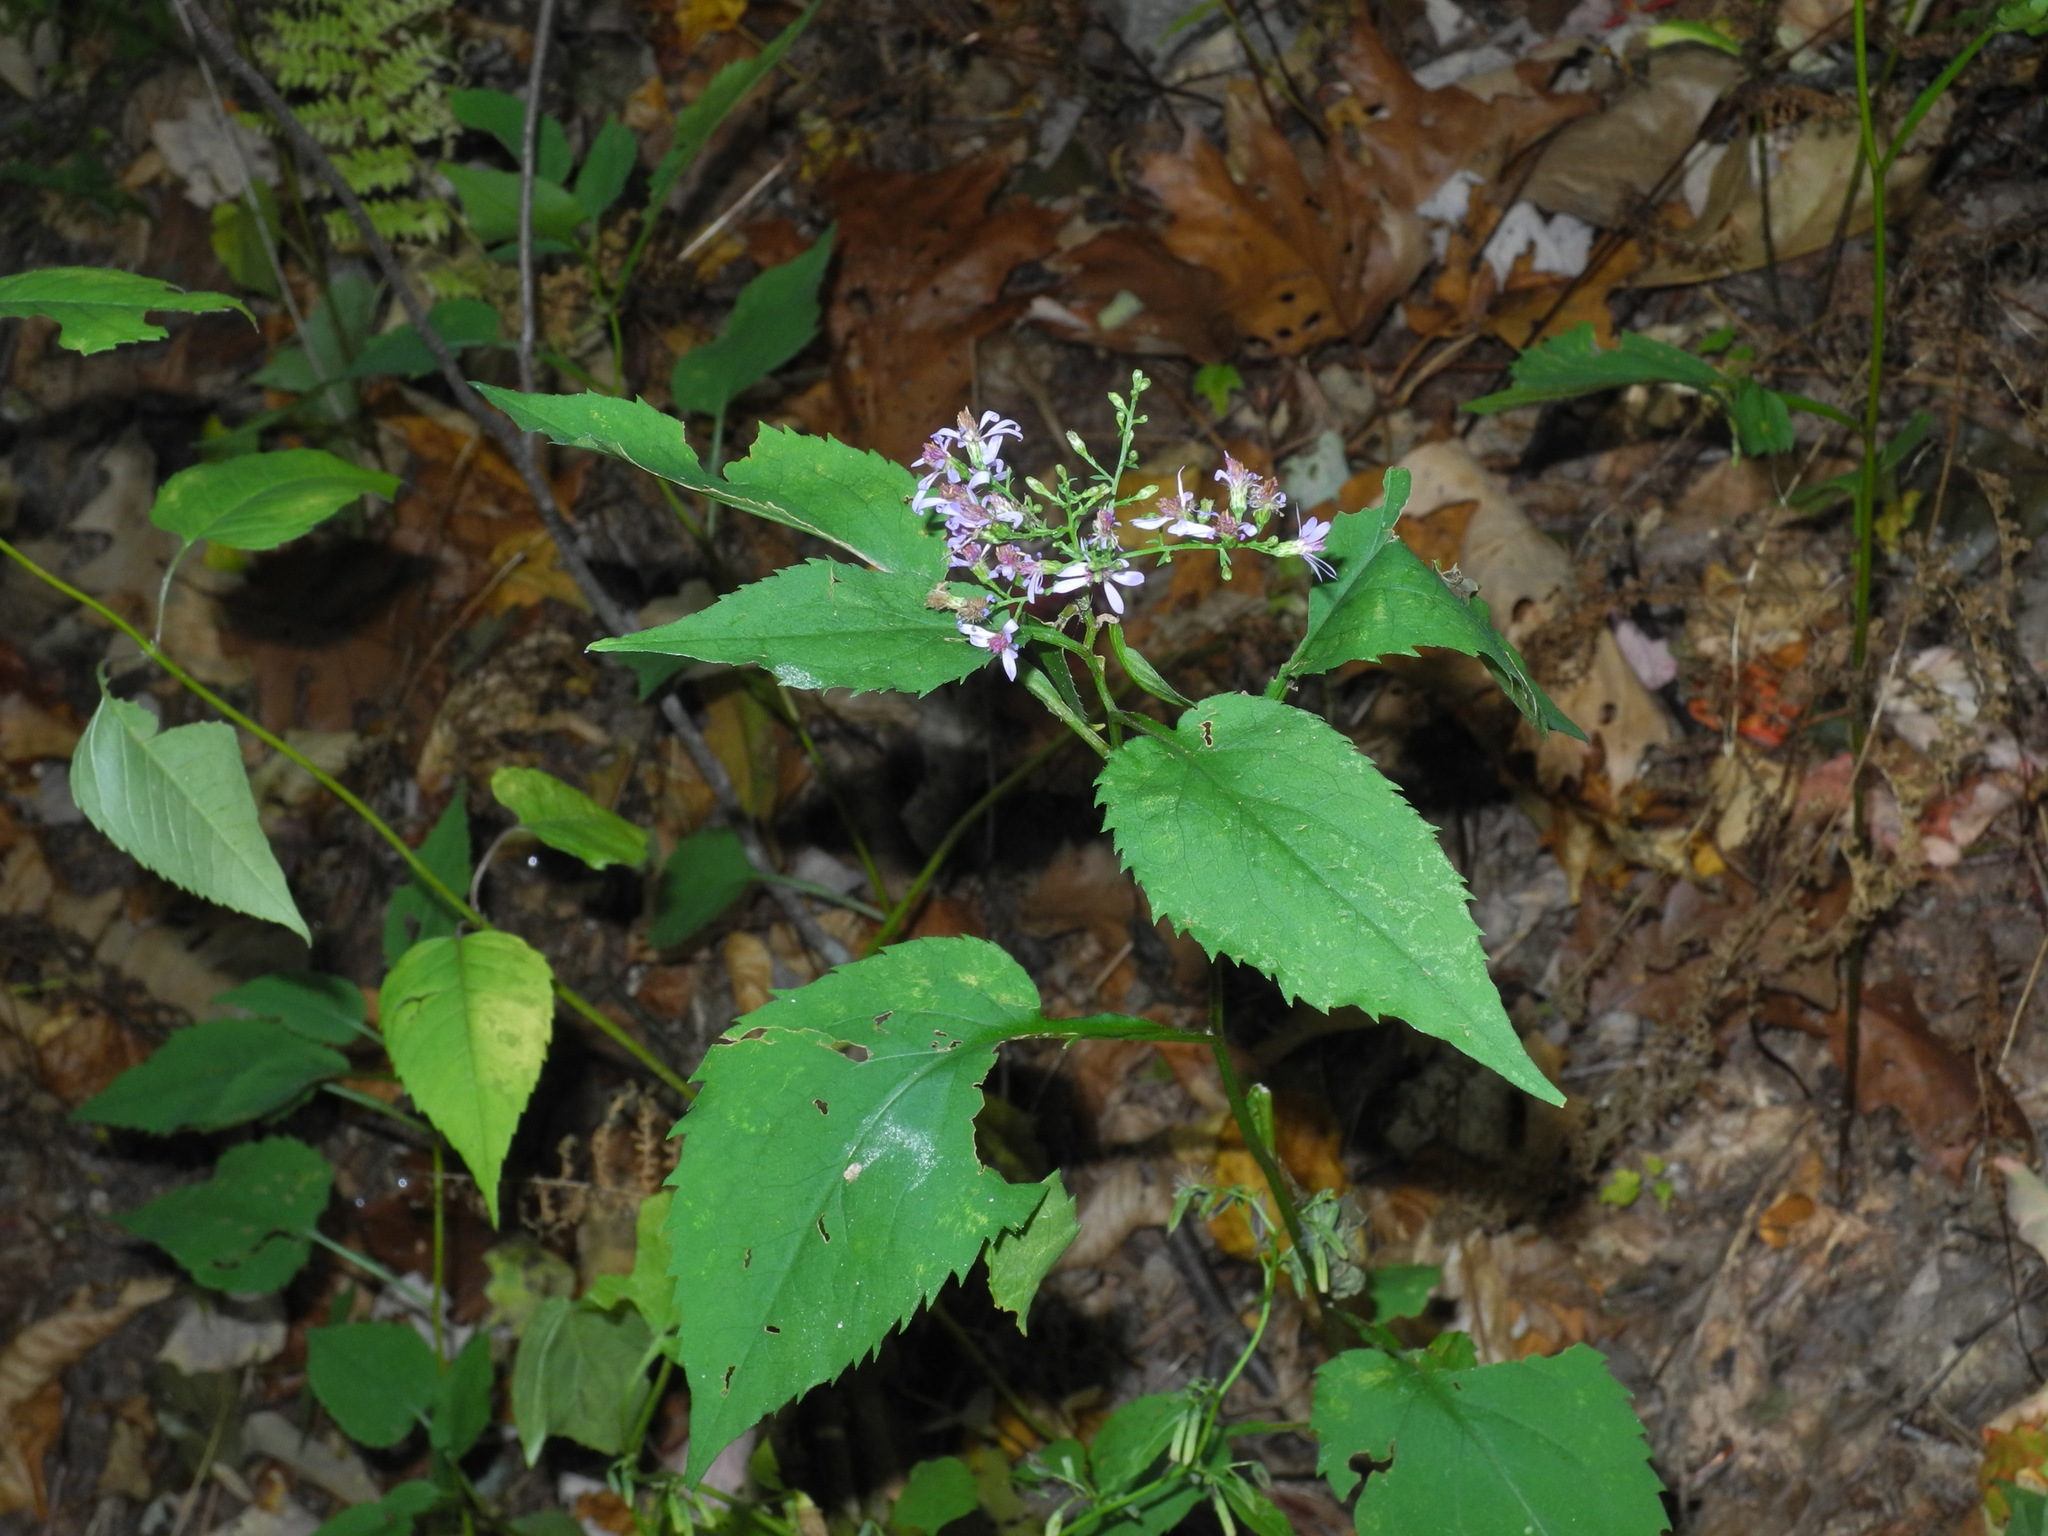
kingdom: Plantae
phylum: Tracheophyta
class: Magnoliopsida
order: Asterales
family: Asteraceae
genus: Symphyotrichum
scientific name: Symphyotrichum cordifolium
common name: Beeweed
